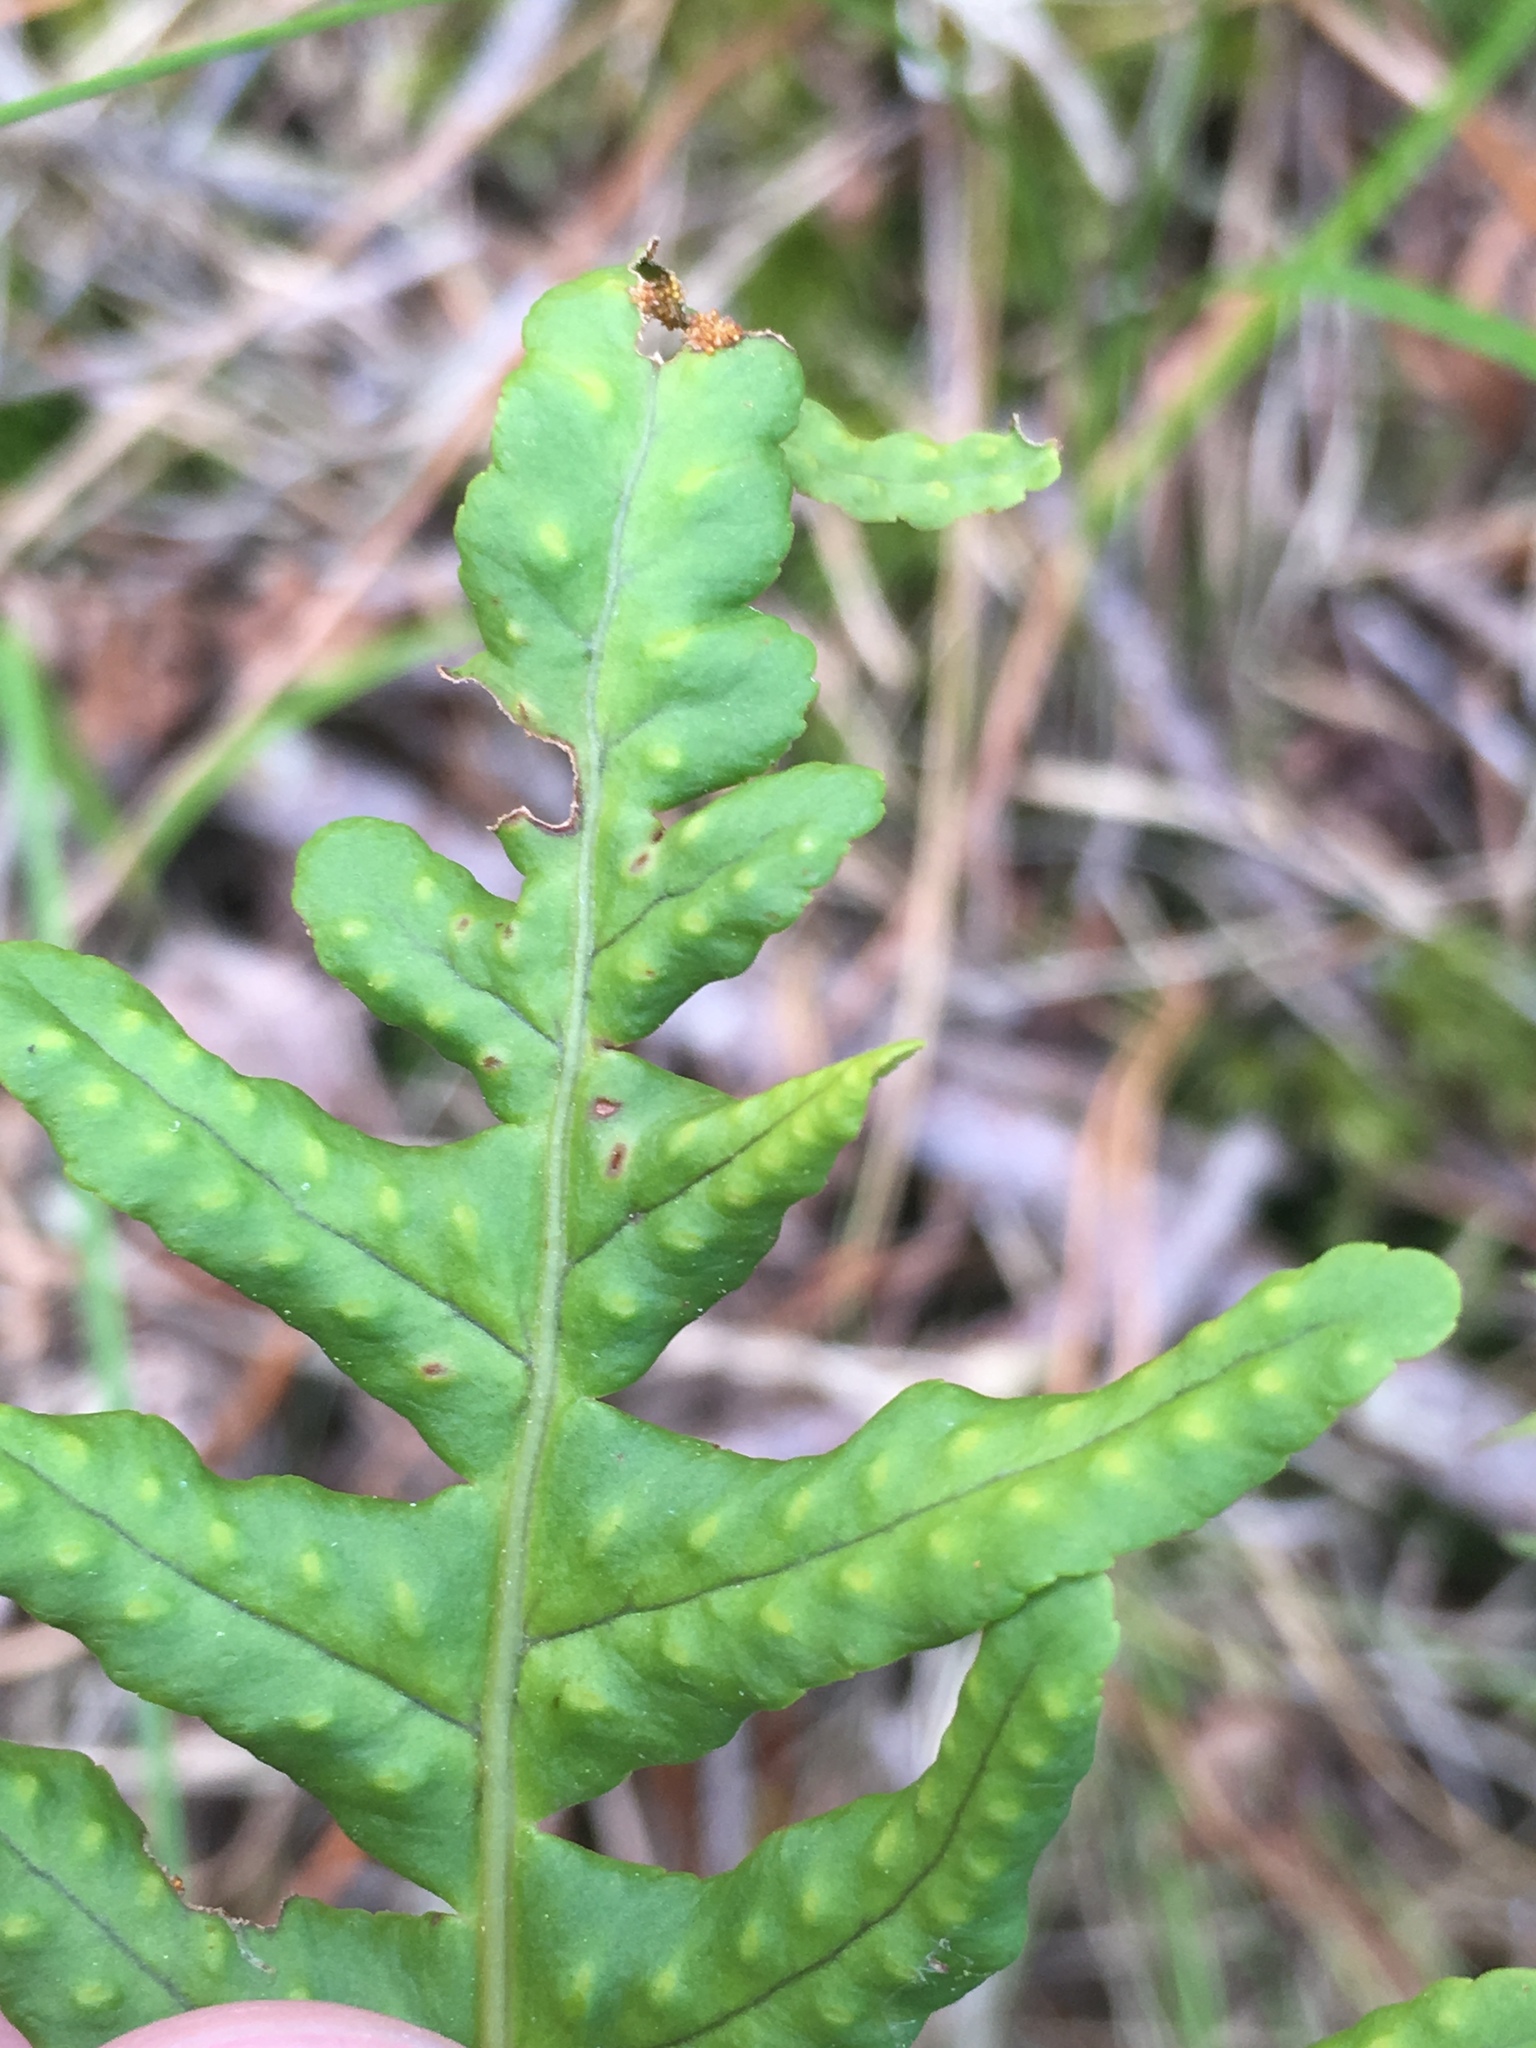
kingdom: Plantae
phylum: Tracheophyta
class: Polypodiopsida
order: Polypodiales
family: Polypodiaceae
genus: Polypodium
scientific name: Polypodium vulgare
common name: Common polypody
